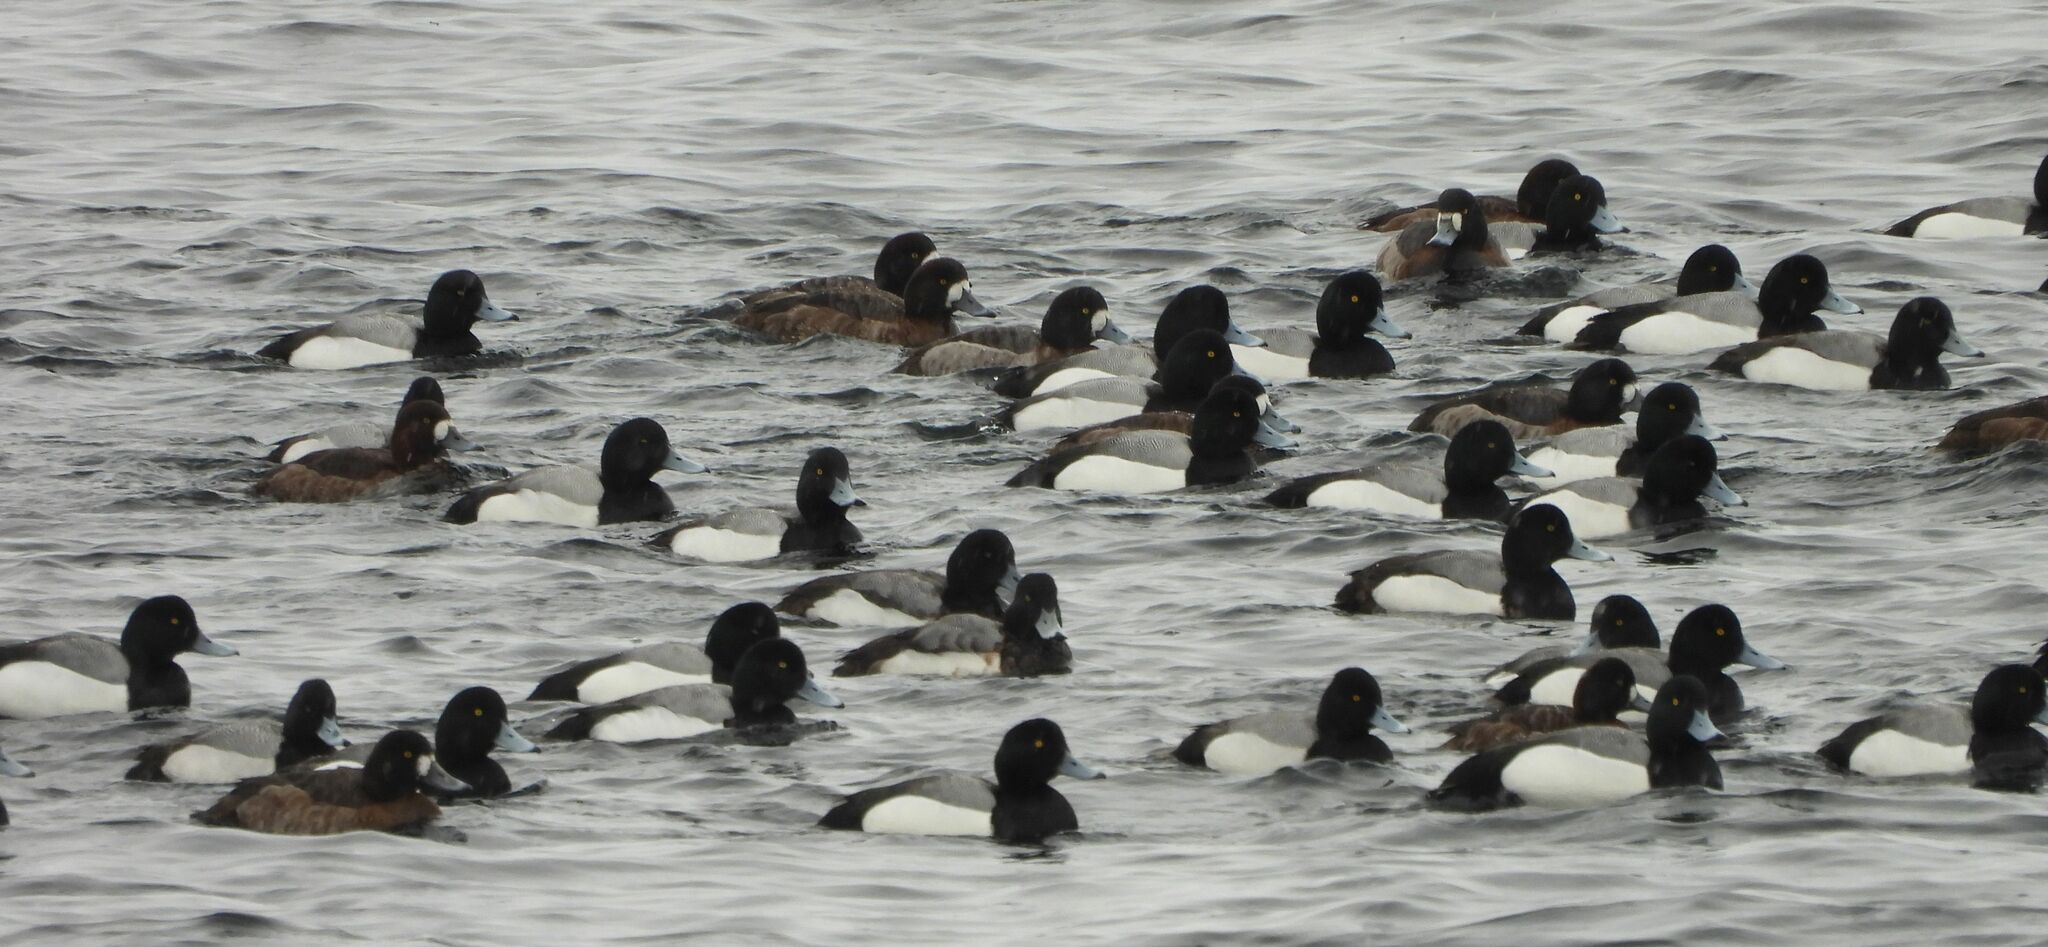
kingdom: Animalia
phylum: Chordata
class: Aves
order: Anseriformes
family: Anatidae
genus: Aythya
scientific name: Aythya marila
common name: Greater scaup
